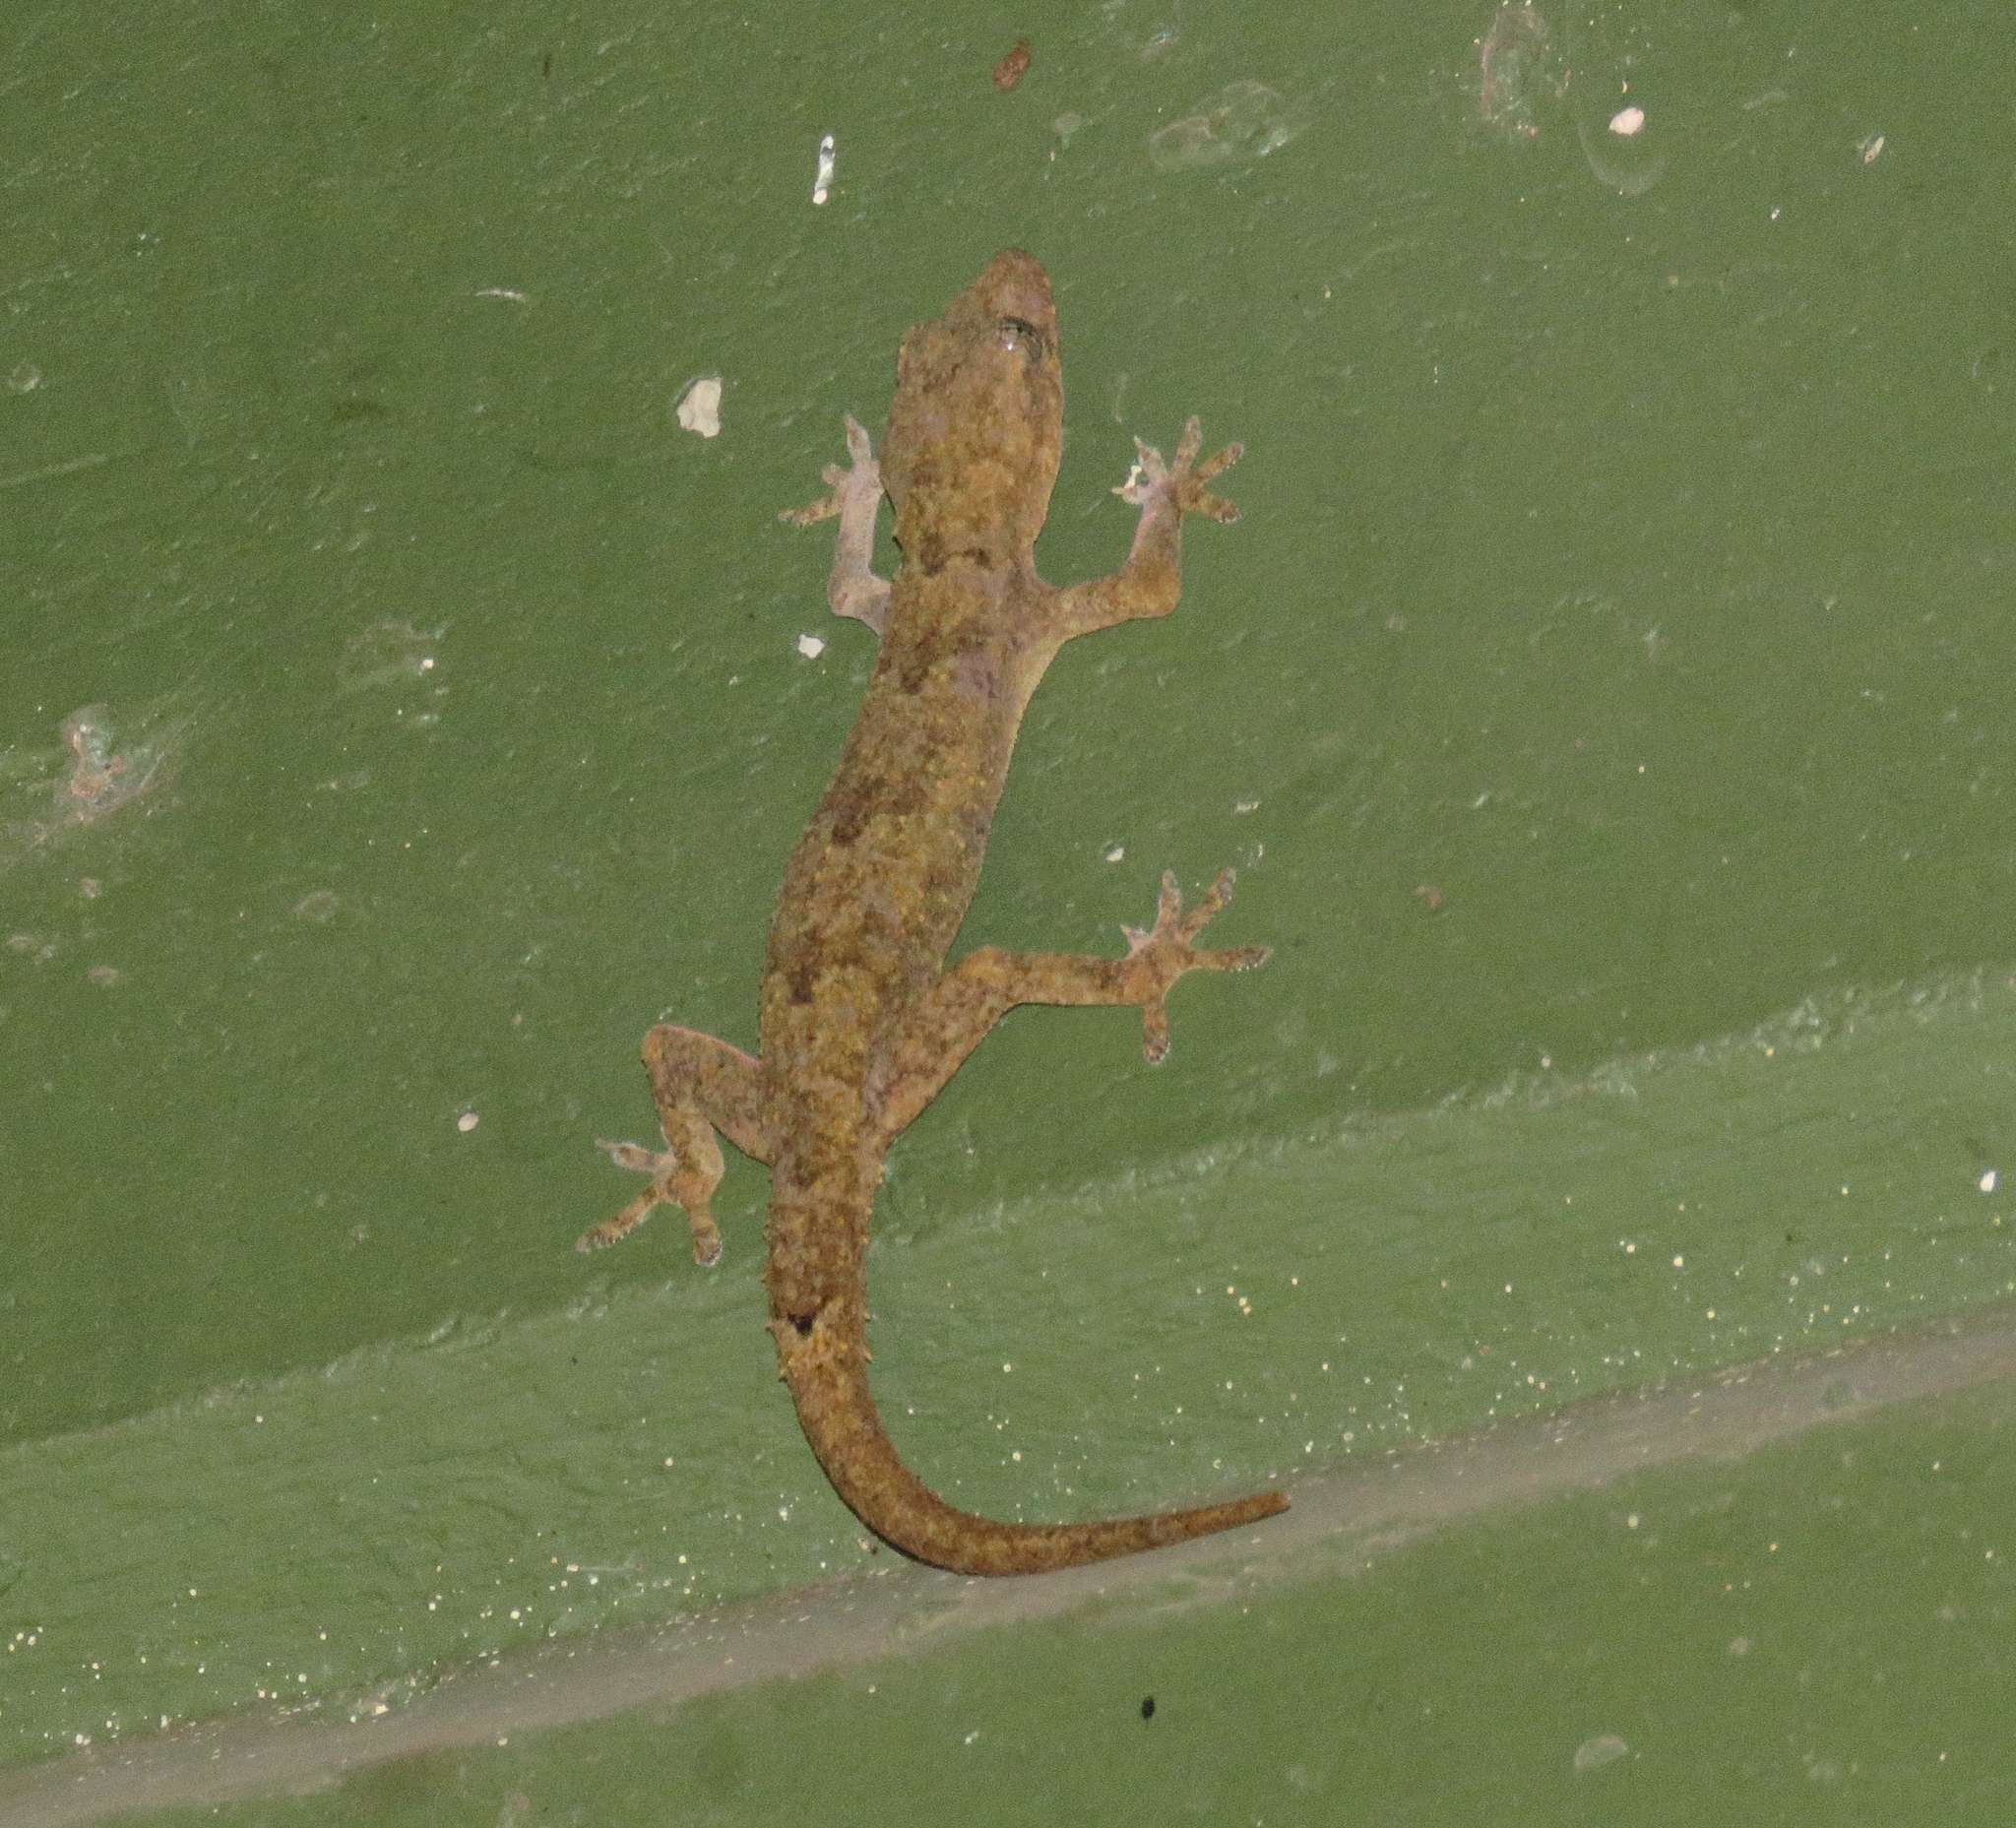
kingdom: Animalia
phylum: Chordata
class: Squamata
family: Gekkonidae
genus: Hemidactylus
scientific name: Hemidactylus mabouia
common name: House gecko
